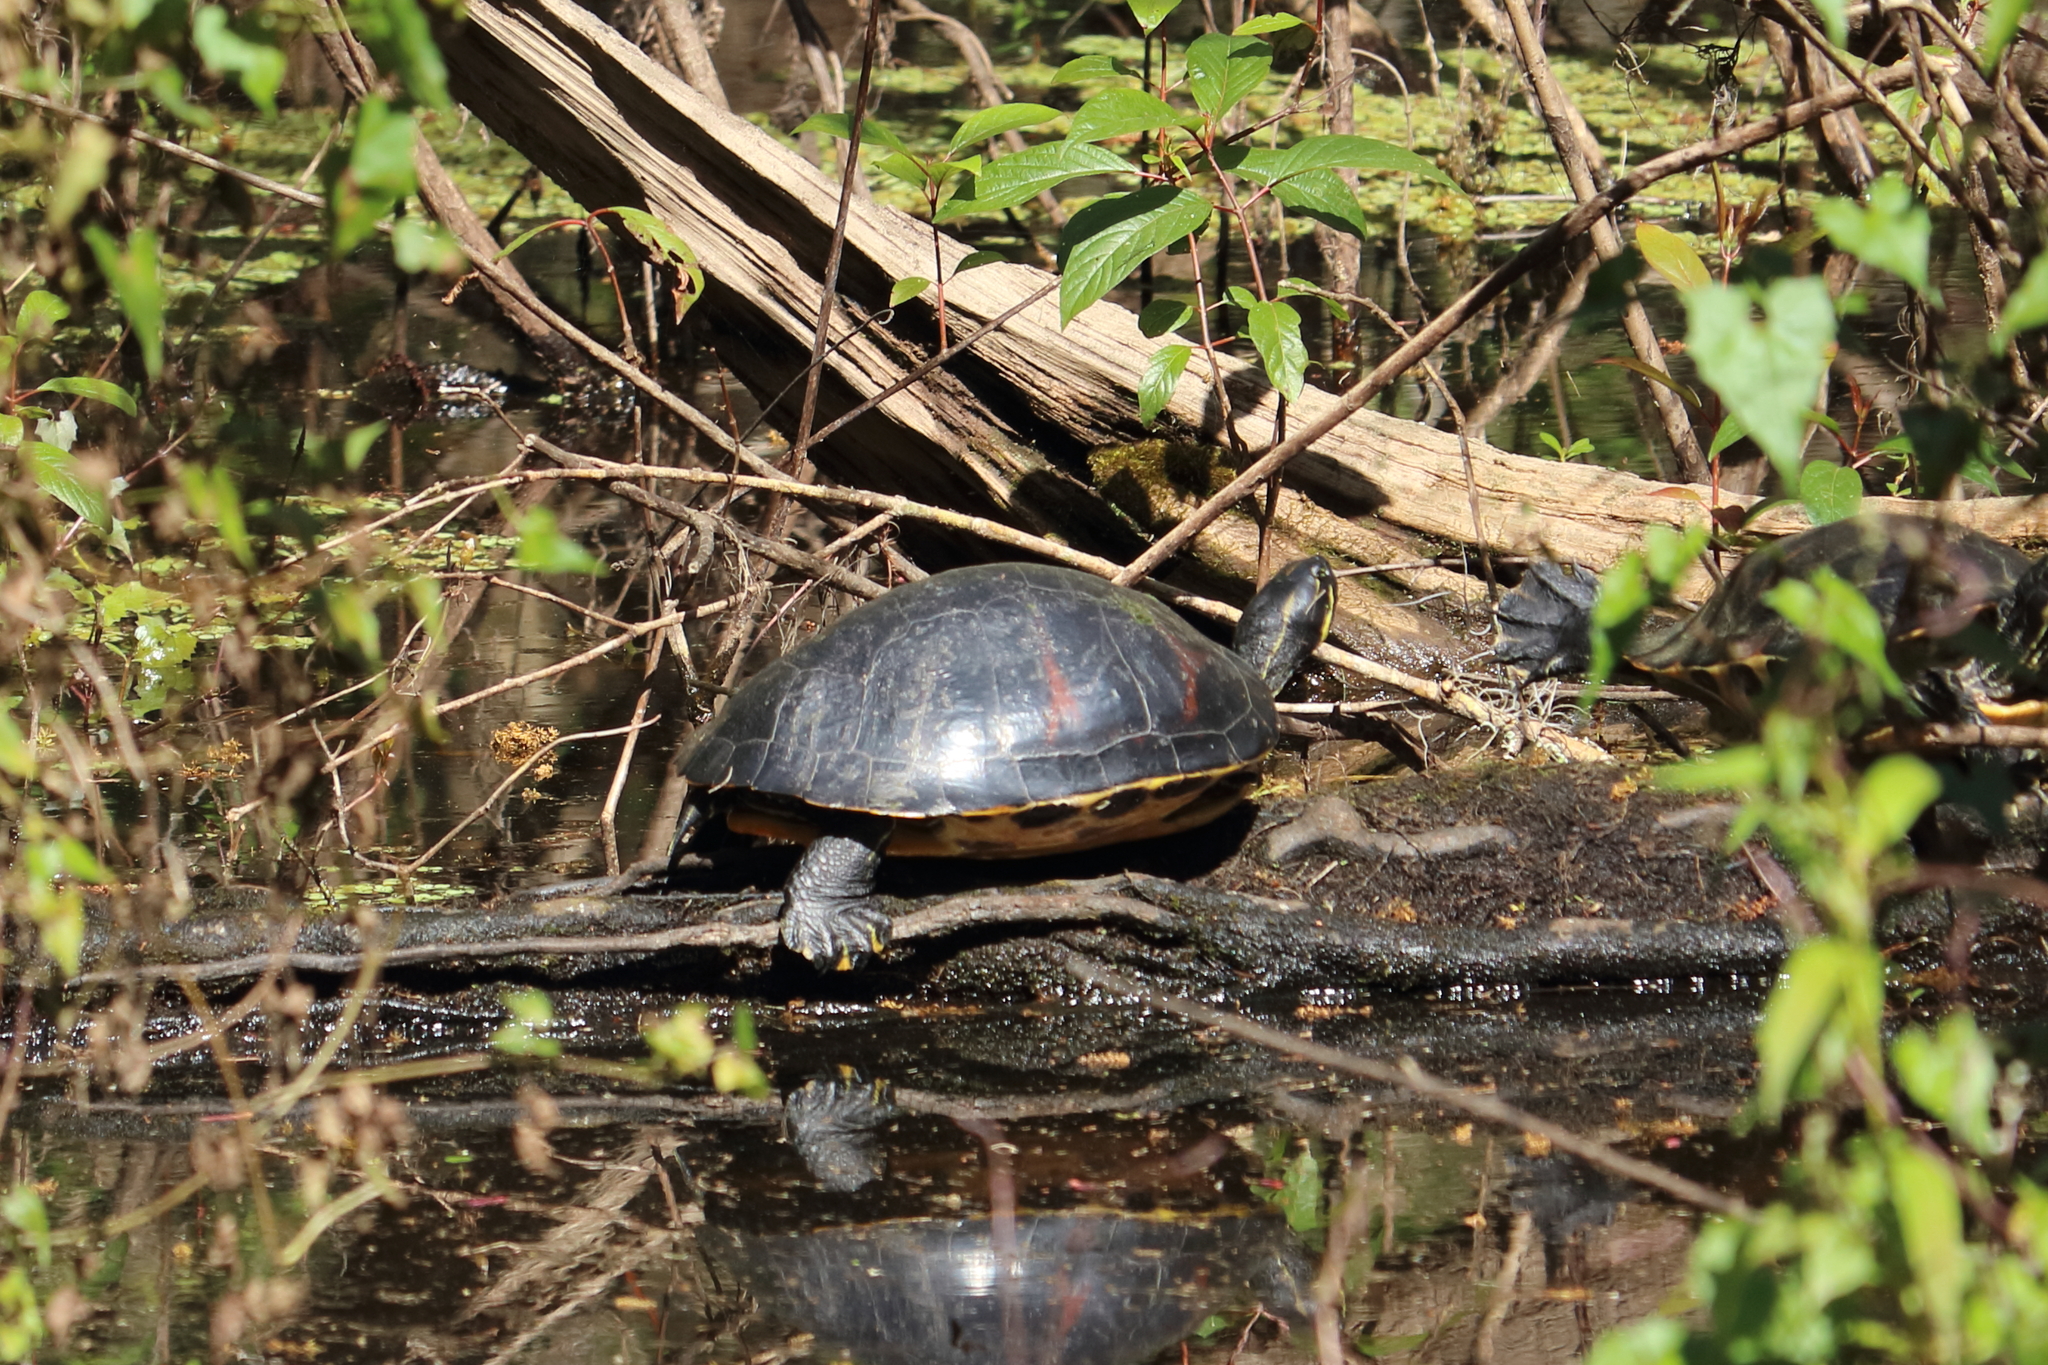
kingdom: Animalia
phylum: Chordata
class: Testudines
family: Emydidae
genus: Pseudemys
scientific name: Pseudemys nelsoni
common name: Florida red-bellied turtle
